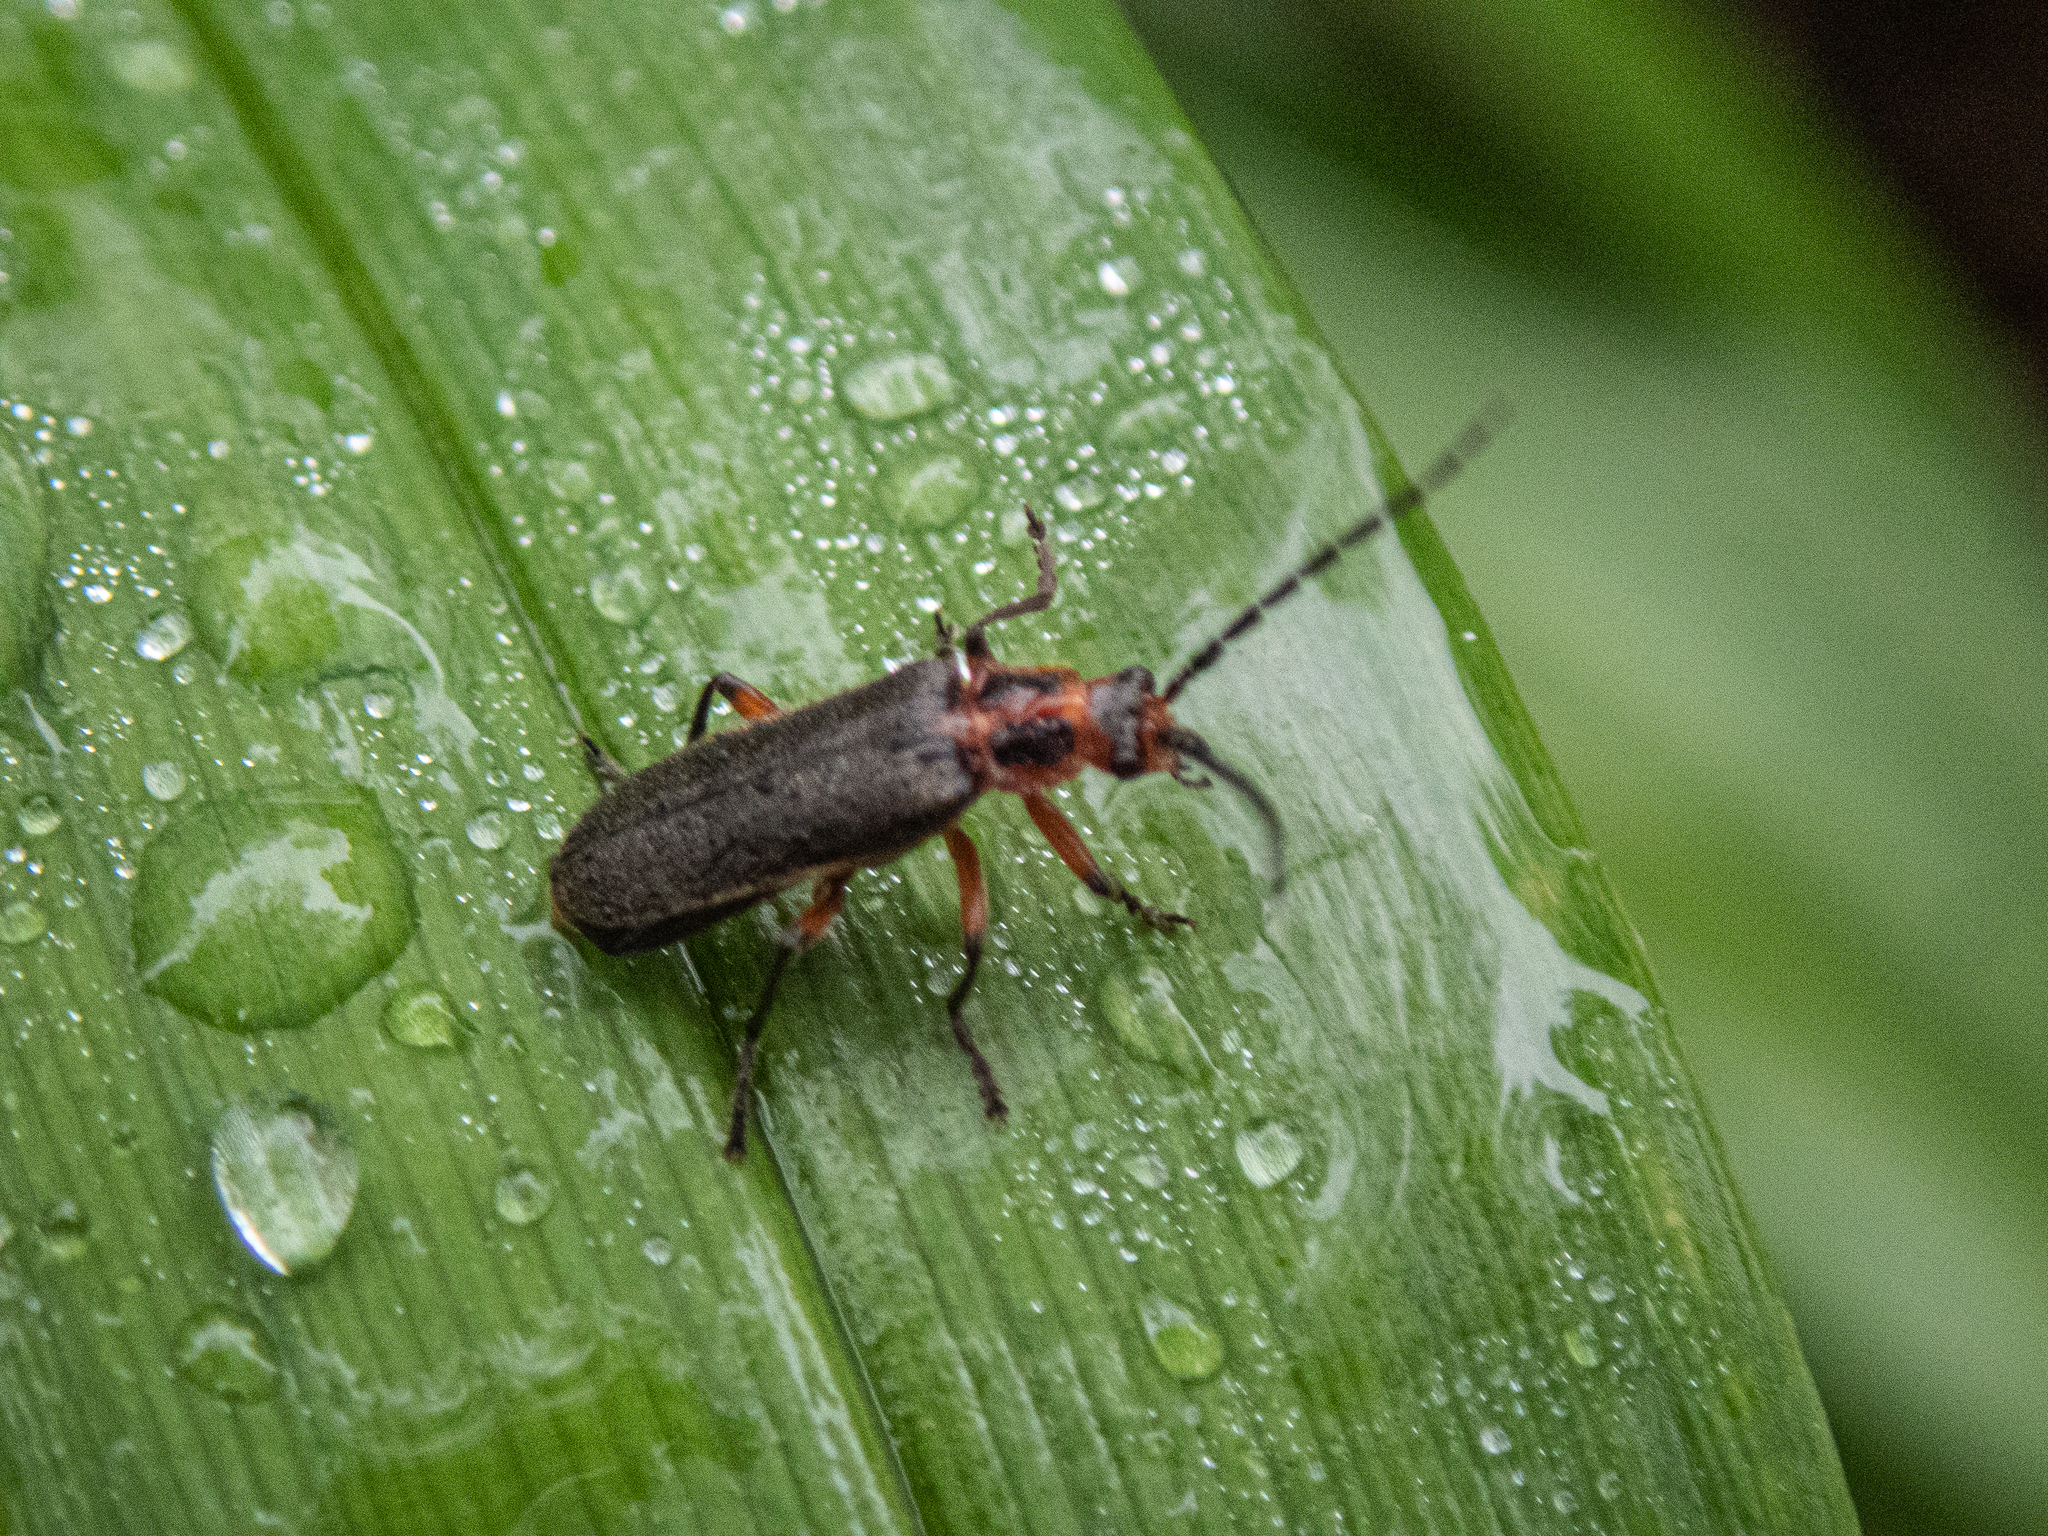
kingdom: Animalia
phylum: Arthropoda
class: Insecta
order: Coleoptera
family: Cantharidae
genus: Atalantycha
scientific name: Atalantycha bilineata
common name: Two-lined leatherwing
